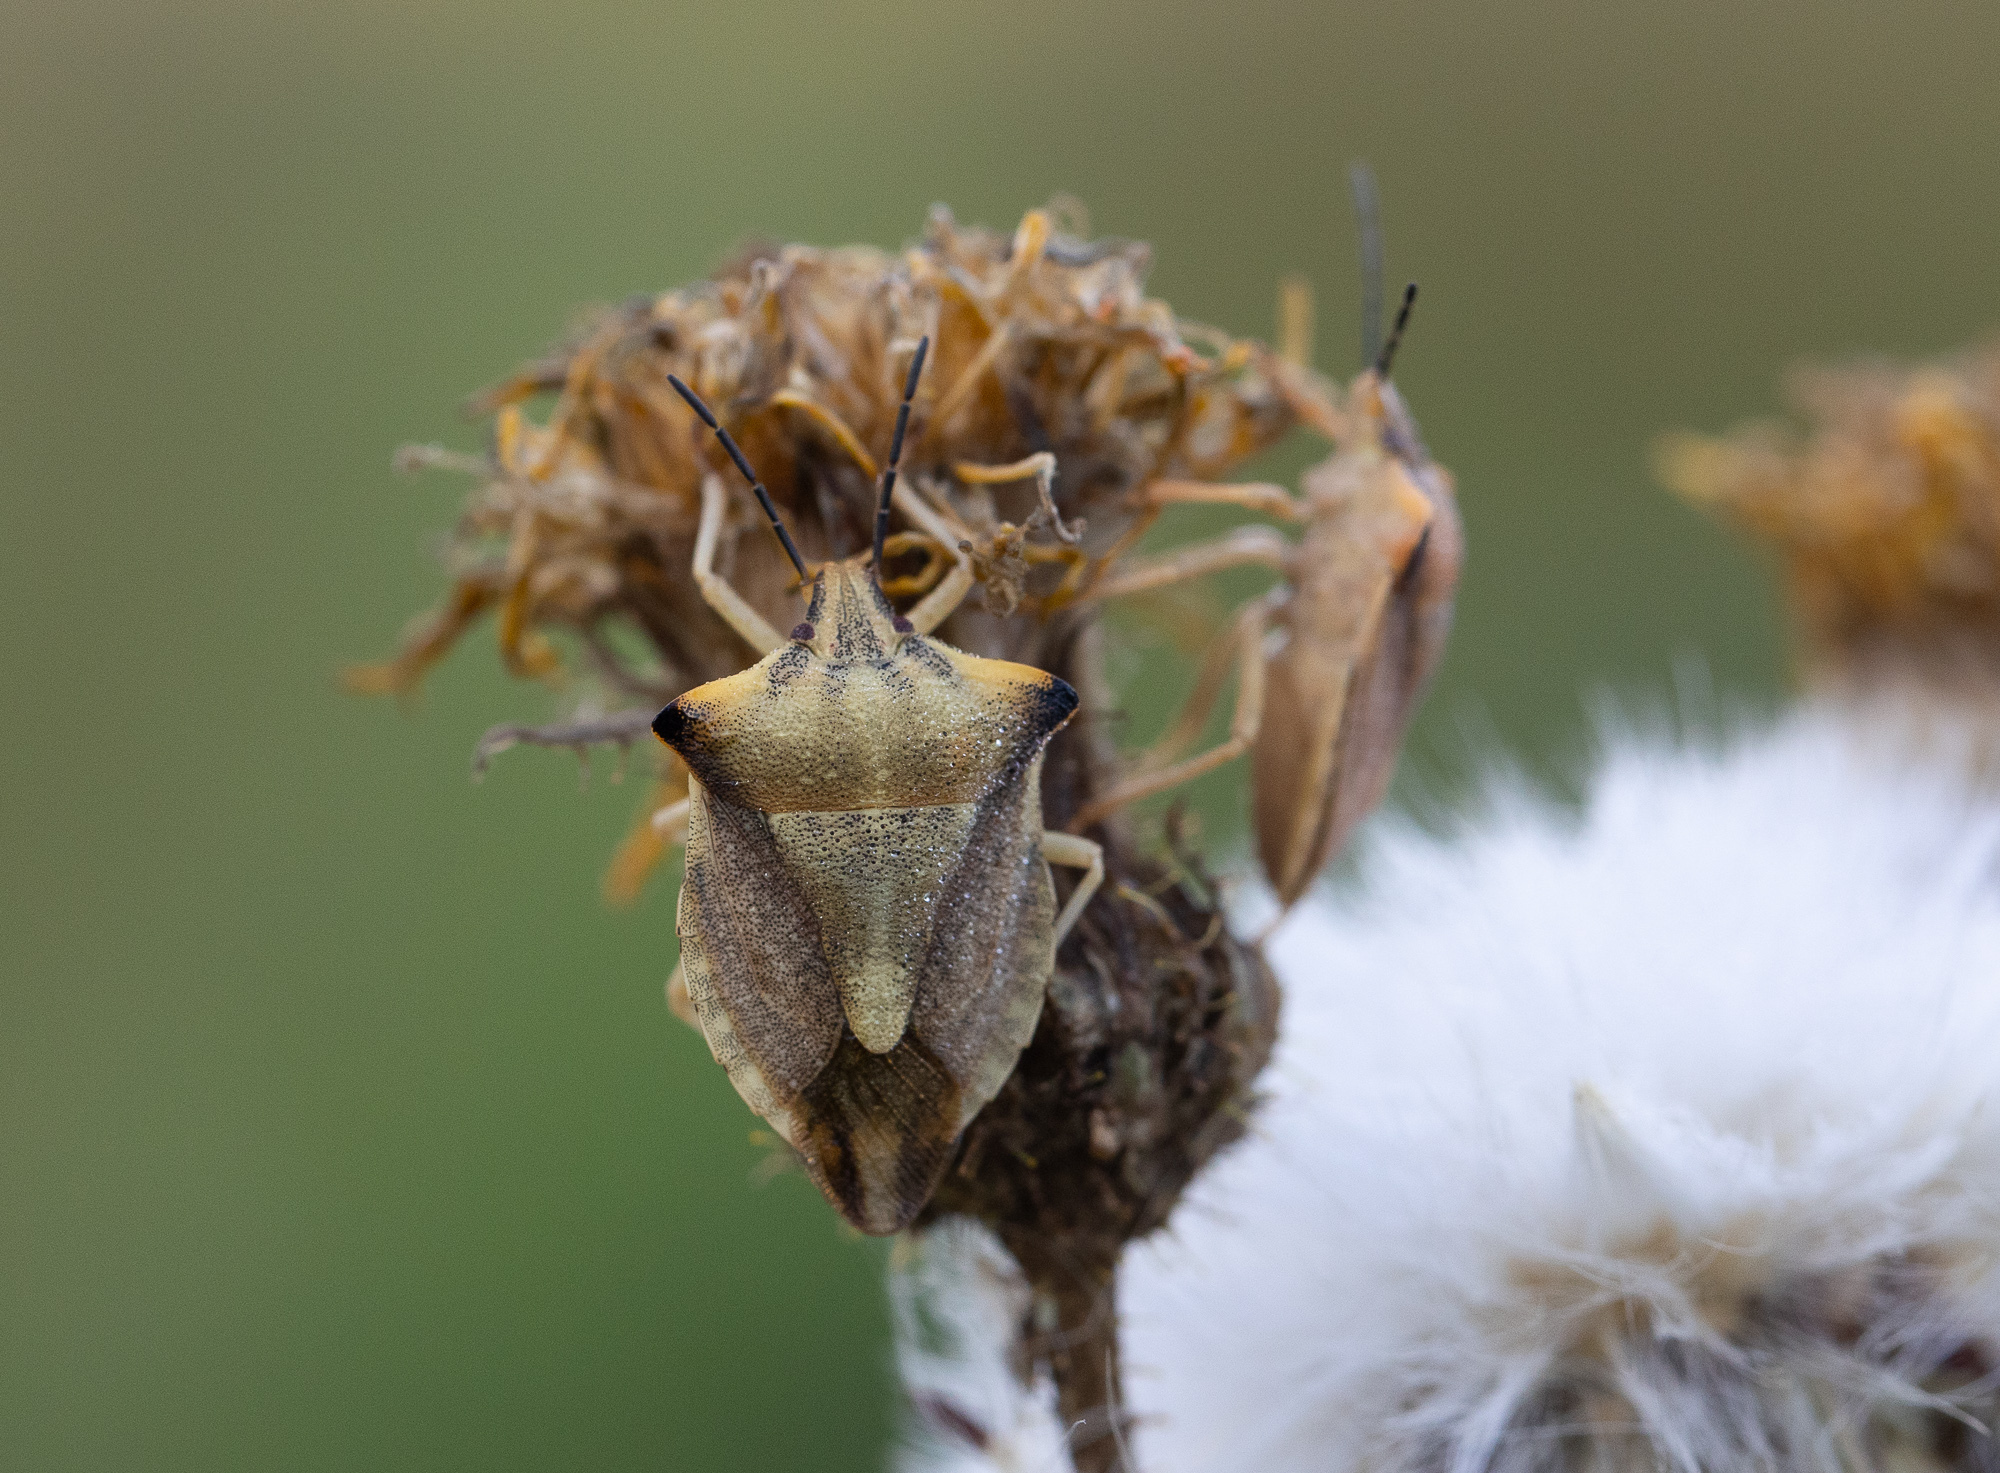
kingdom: Animalia
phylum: Arthropoda
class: Insecta
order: Hemiptera
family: Pentatomidae
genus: Carpocoris
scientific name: Carpocoris fuscispinus
